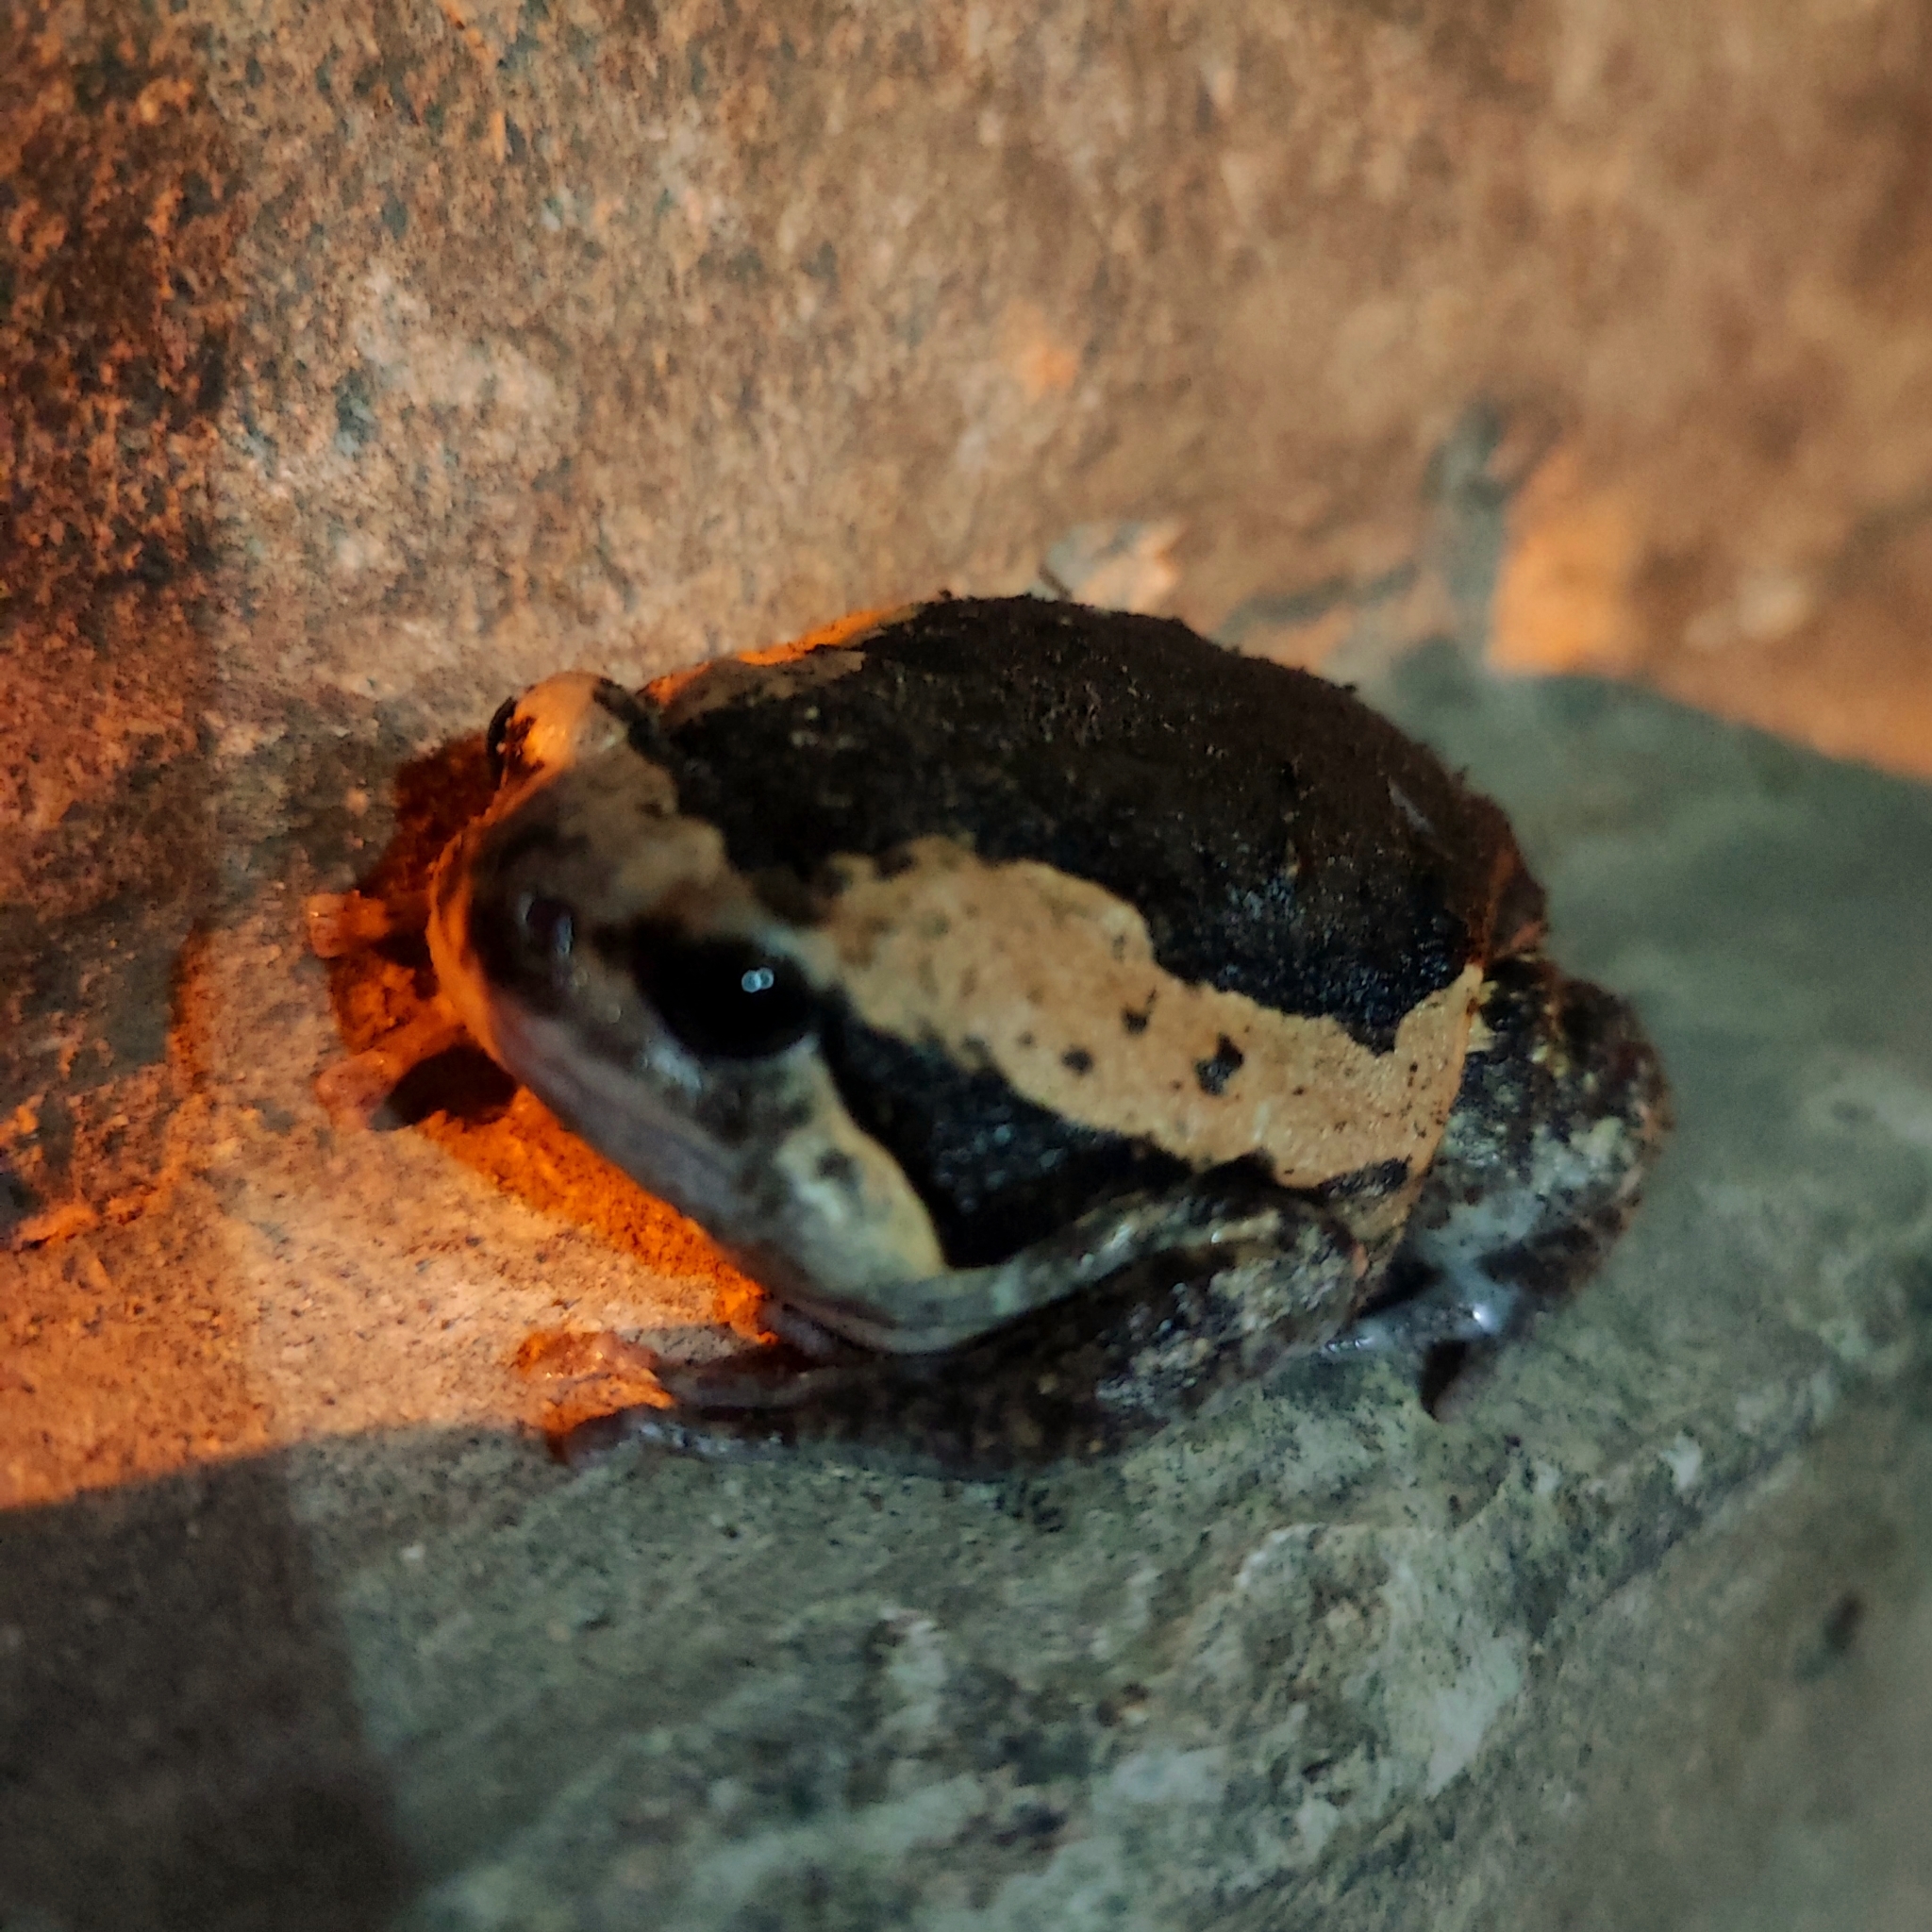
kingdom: Animalia
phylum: Chordata
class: Amphibia
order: Anura
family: Microhylidae
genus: Kaloula
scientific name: Kaloula pulchra
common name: Common,banded bullfrog
